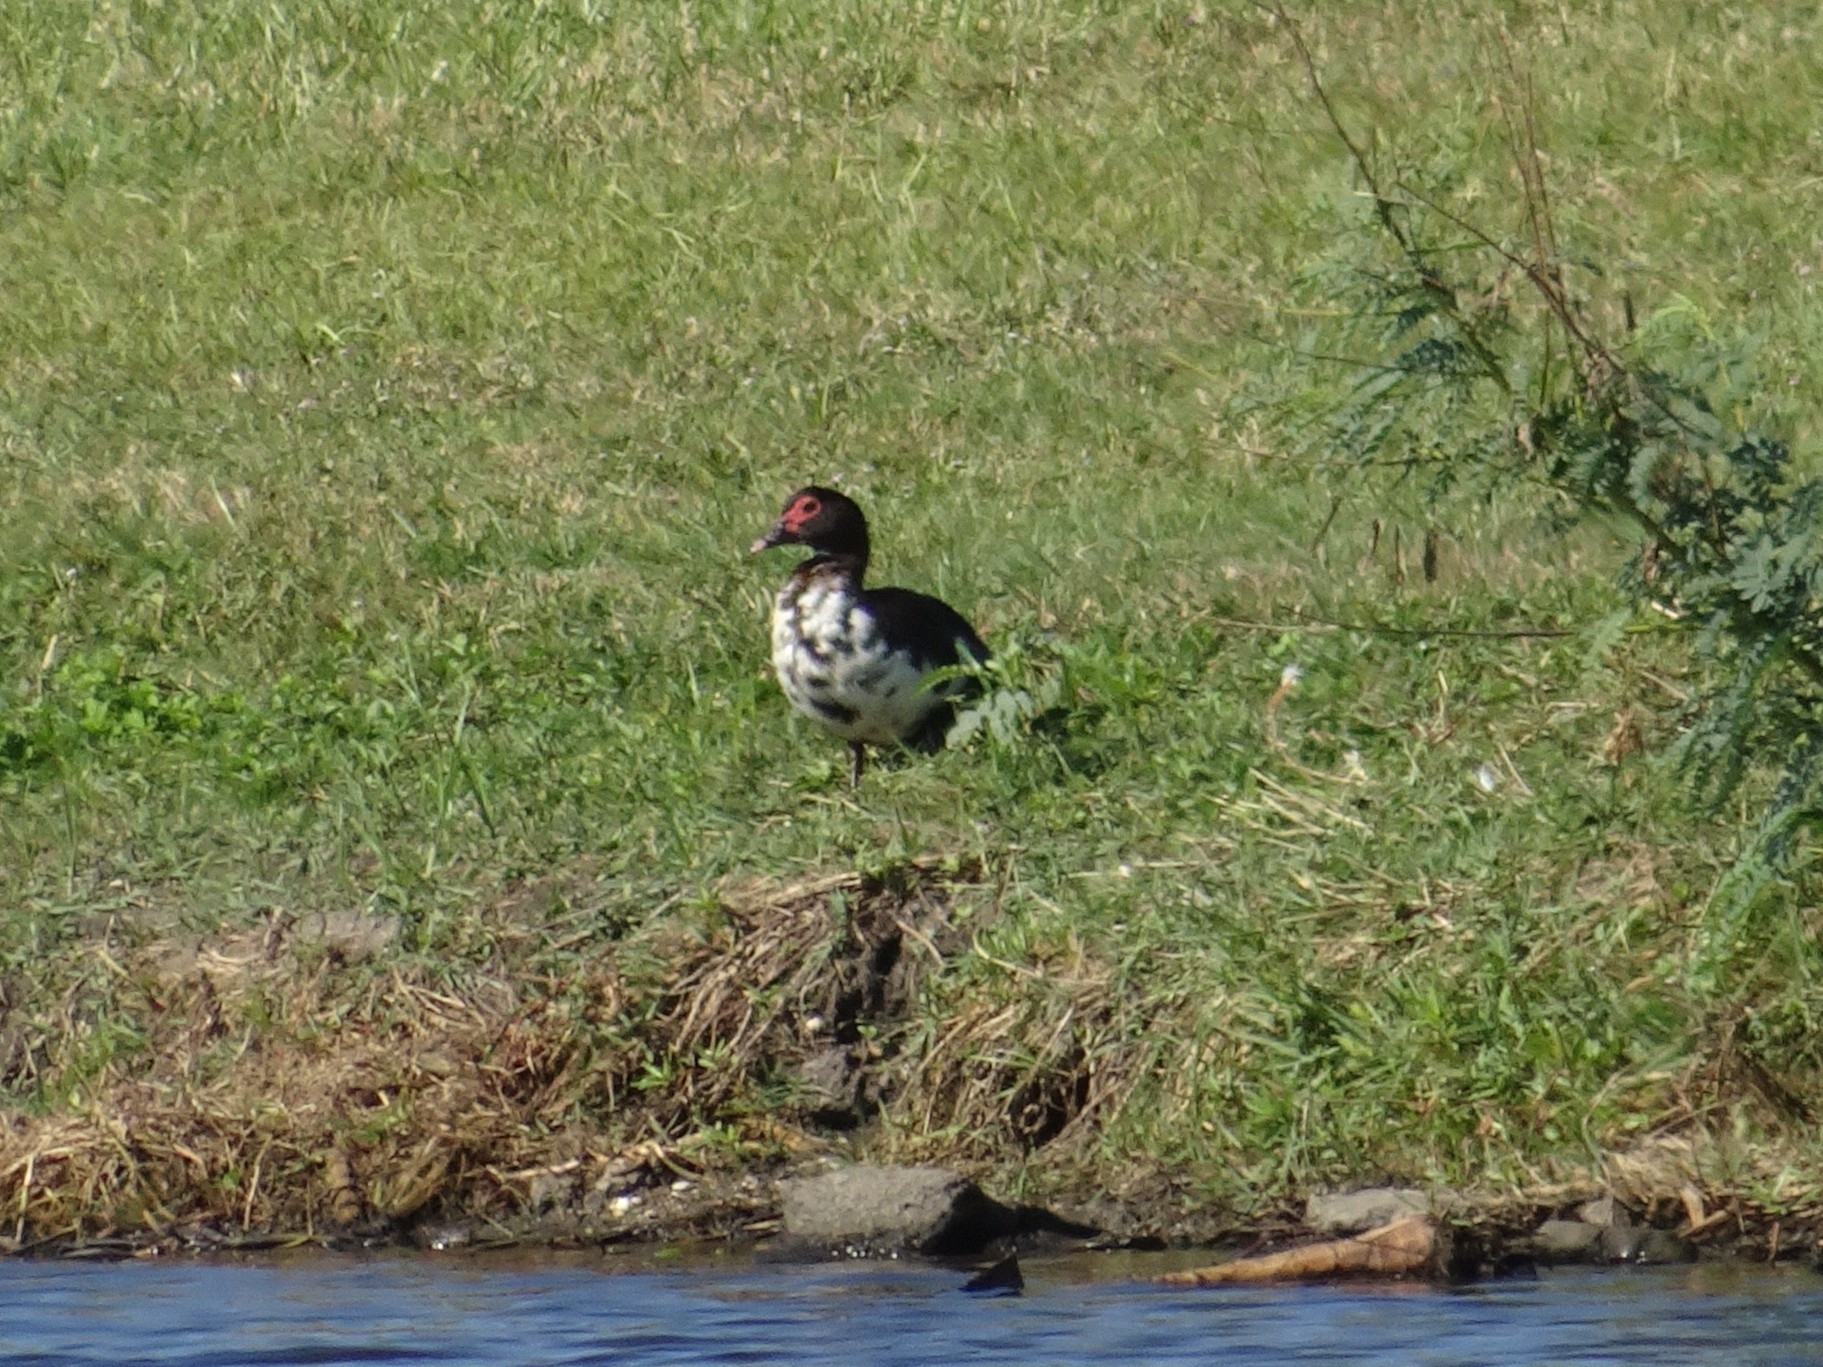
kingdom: Animalia
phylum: Chordata
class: Aves
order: Anseriformes
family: Anatidae
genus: Cairina
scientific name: Cairina moschata
